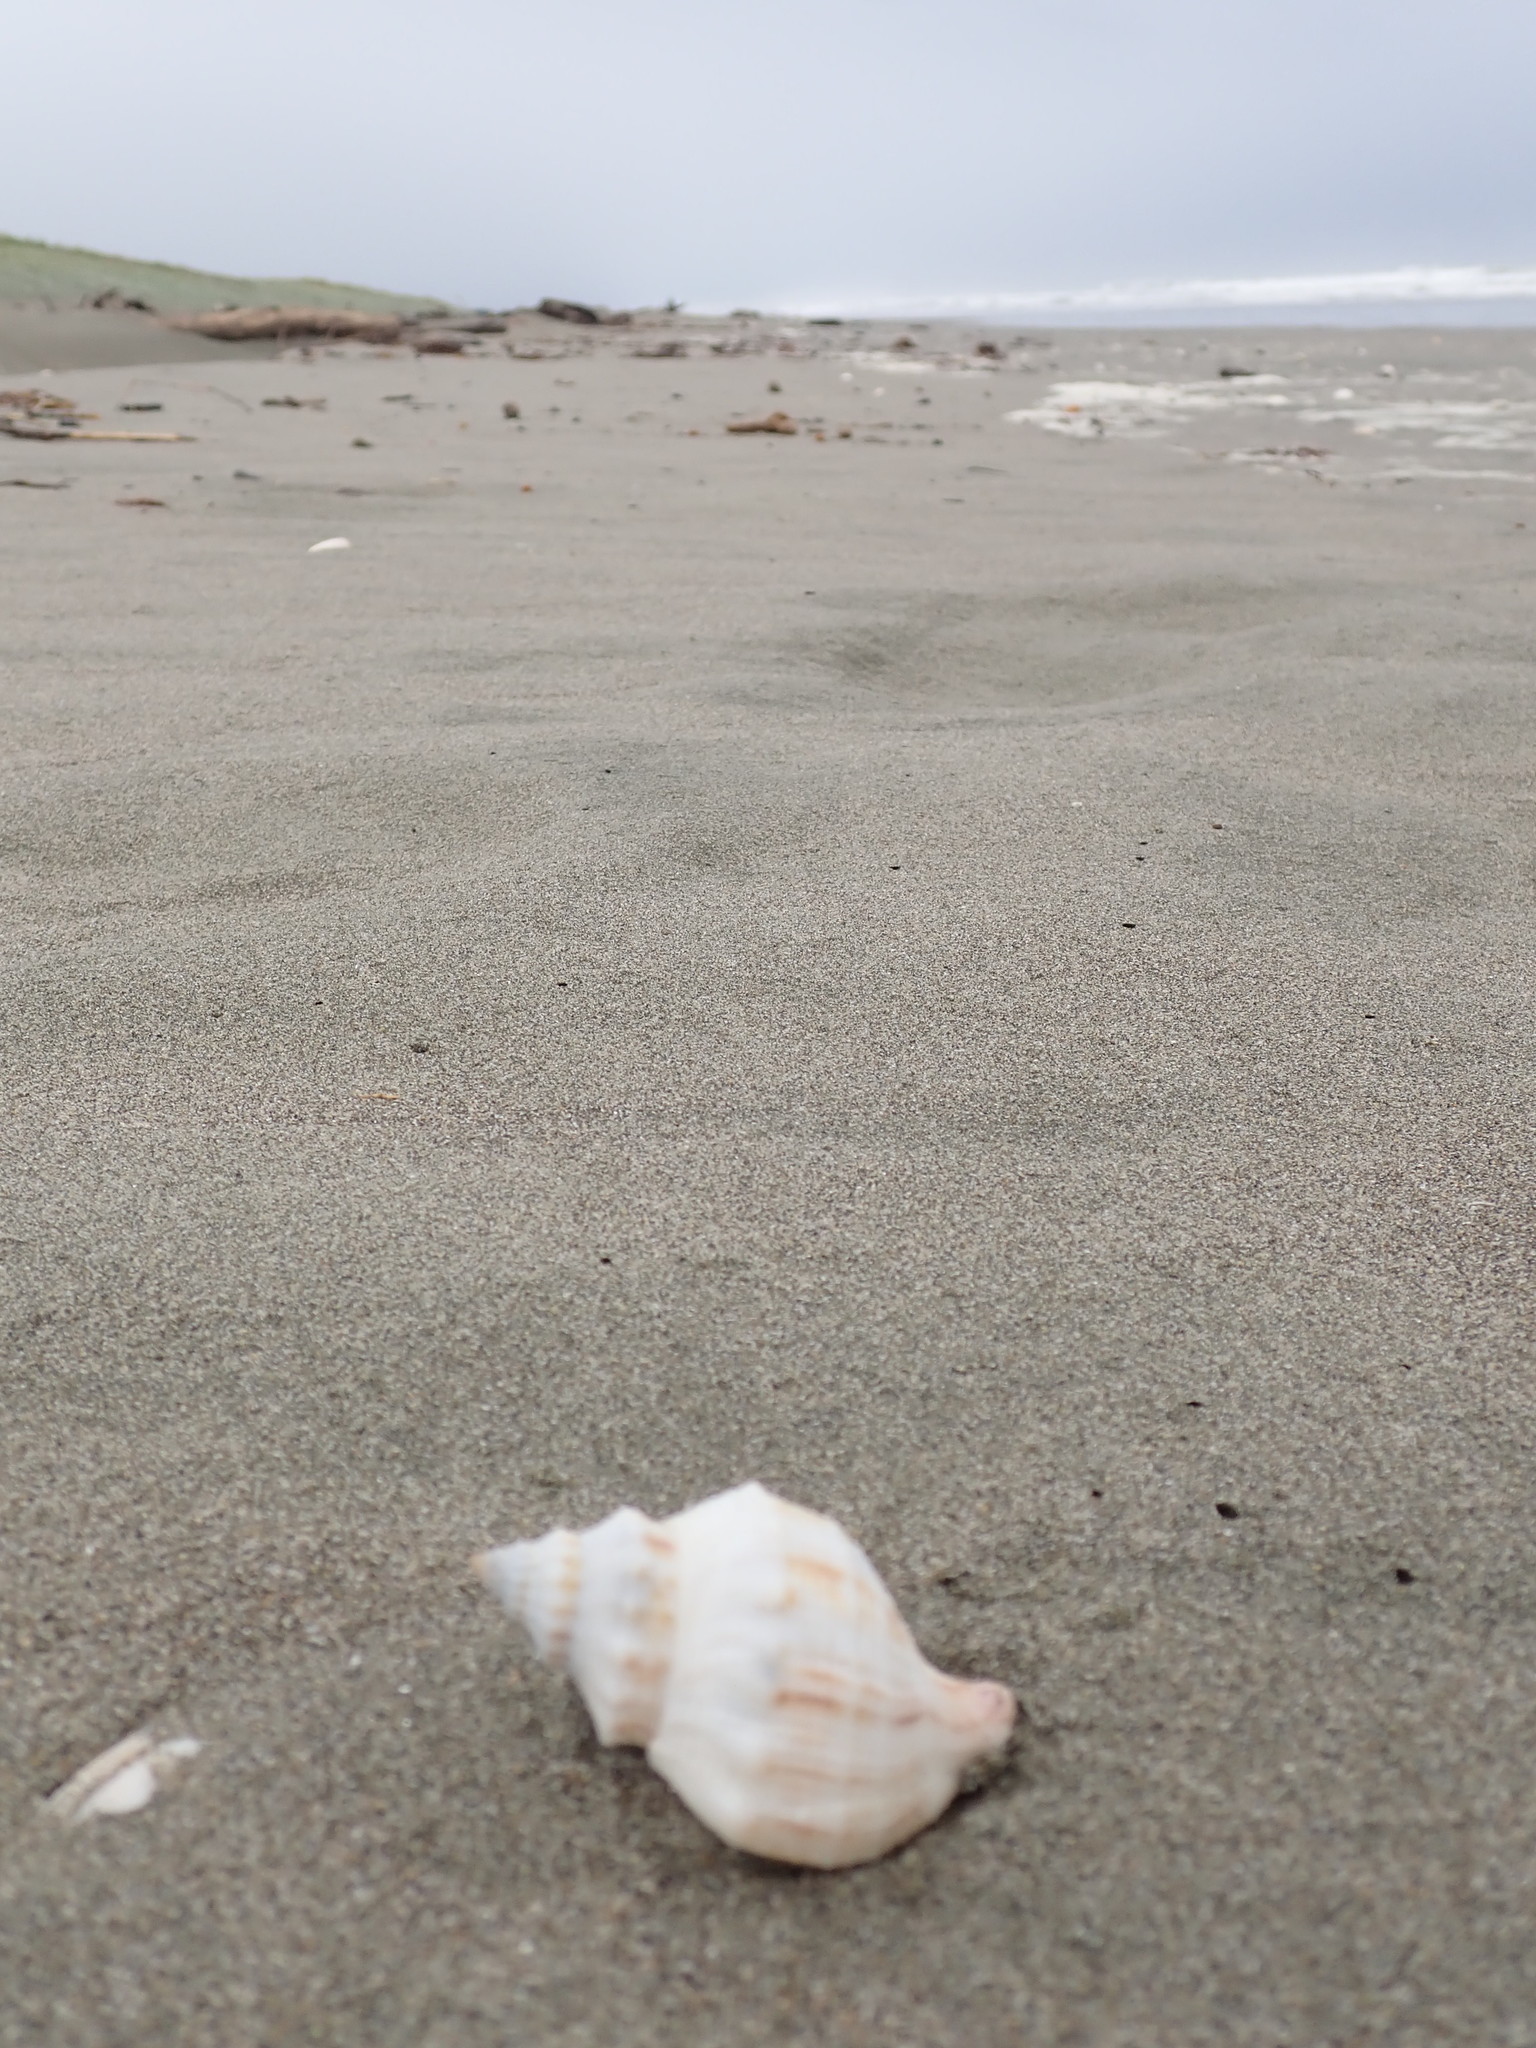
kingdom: Animalia
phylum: Mollusca
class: Gastropoda
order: Neogastropoda
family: Prosiphonidae
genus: Austrofusus
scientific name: Austrofusus glans
